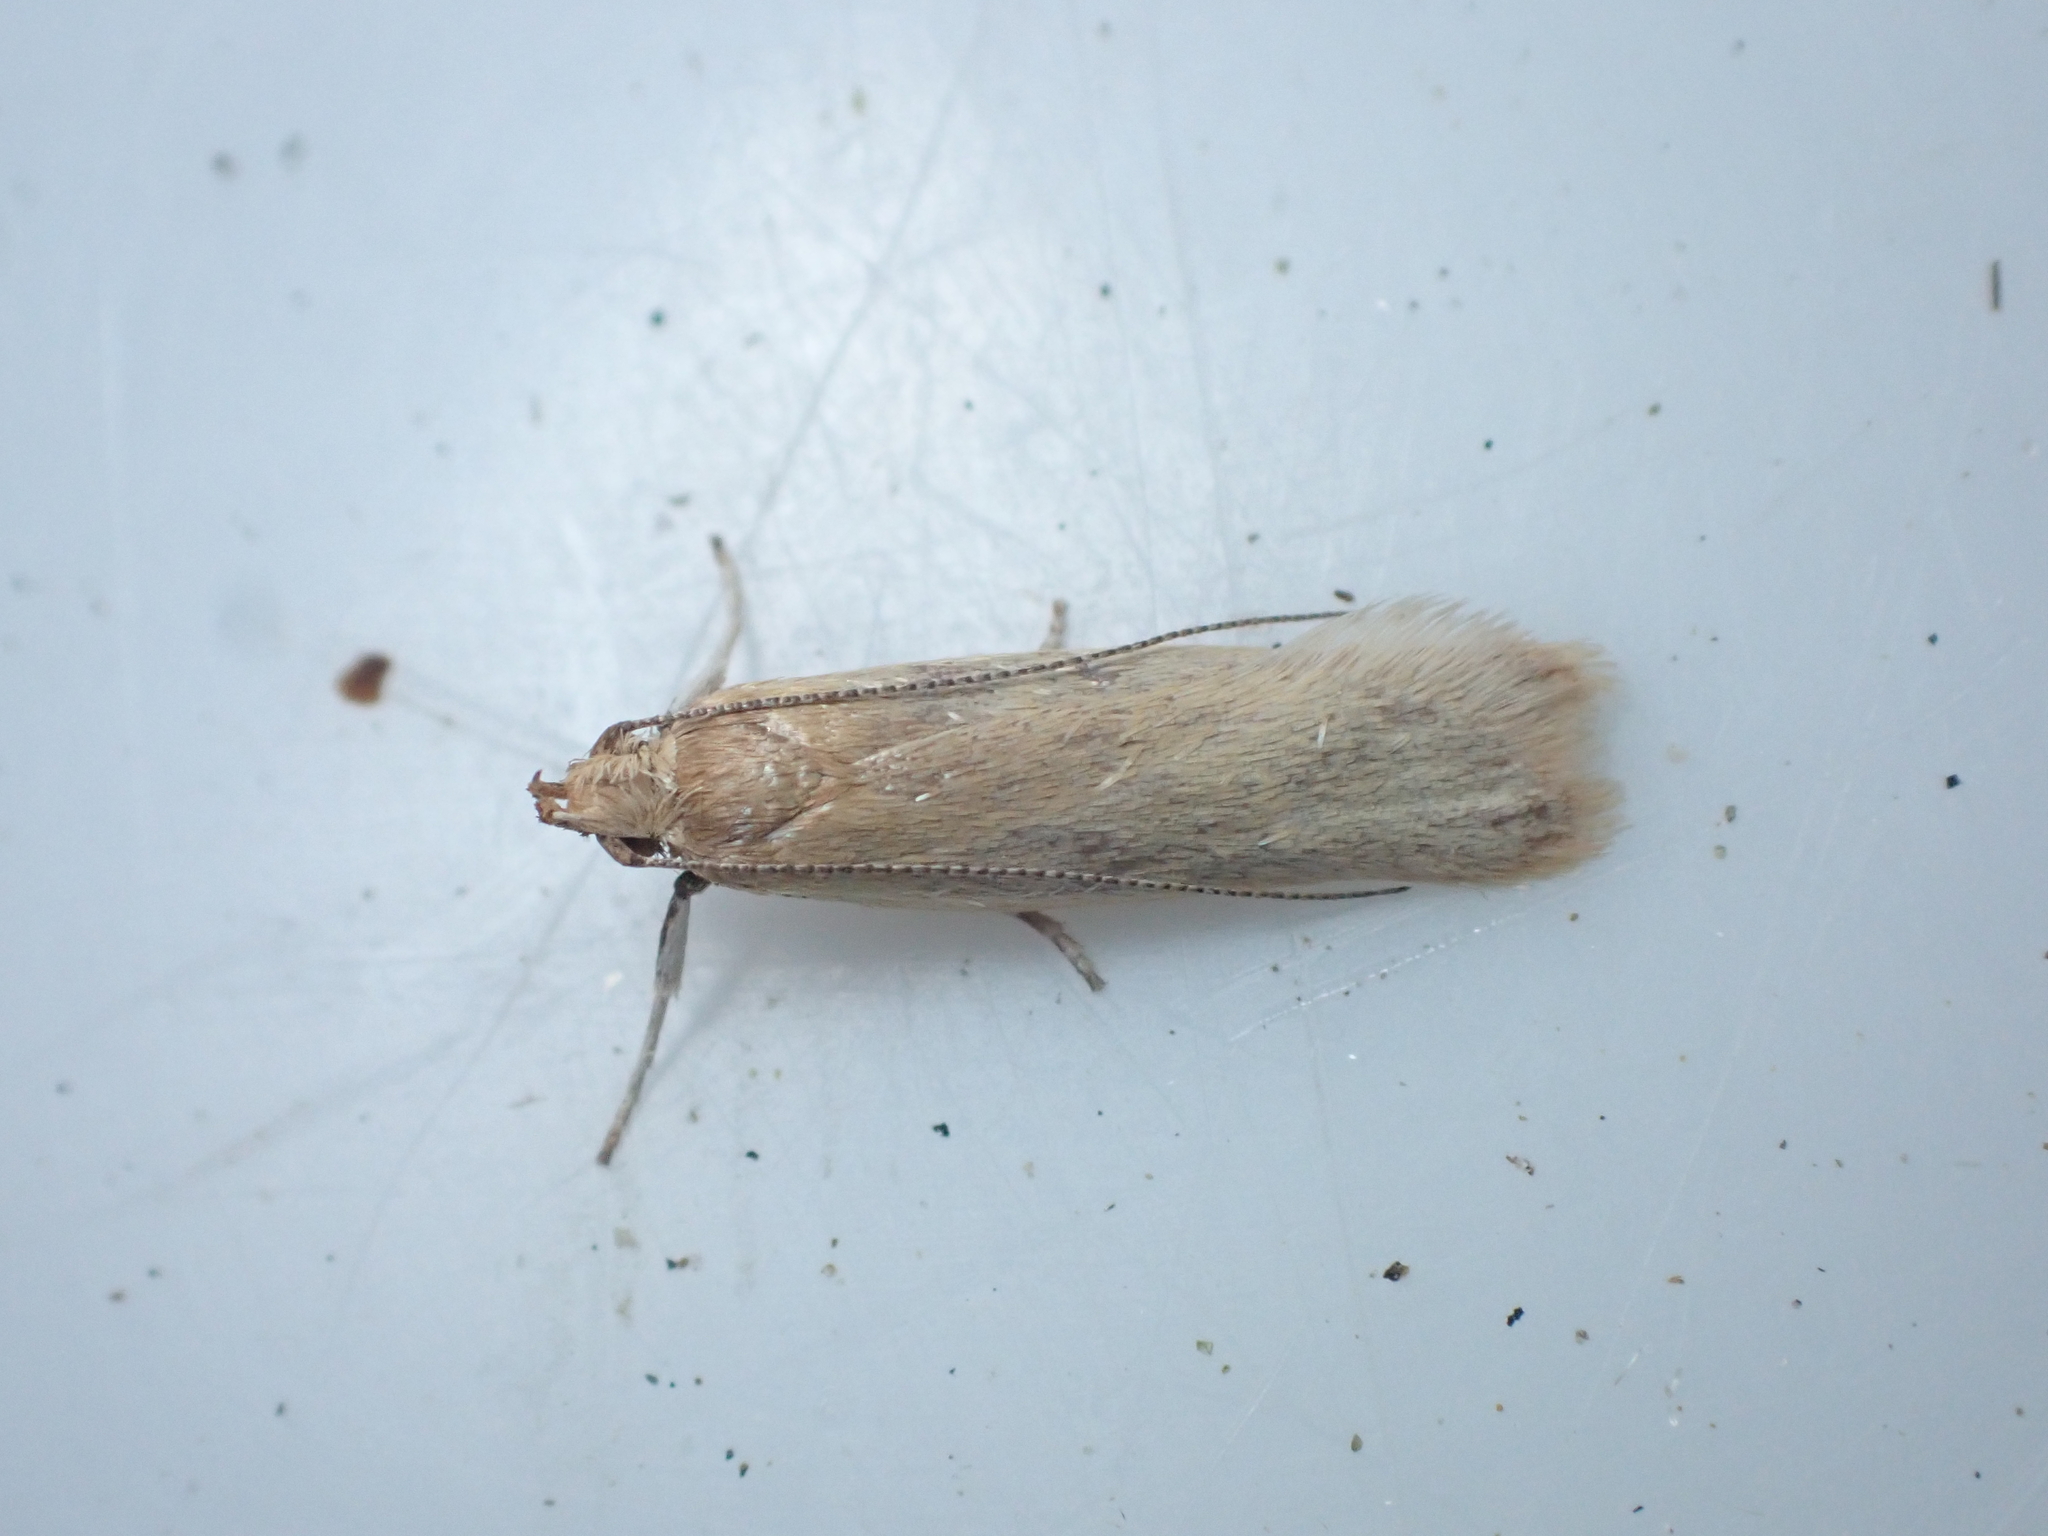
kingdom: Animalia
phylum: Arthropoda
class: Insecta
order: Lepidoptera
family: Oecophoridae
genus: Gymnobathra
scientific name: Gymnobathra parca
